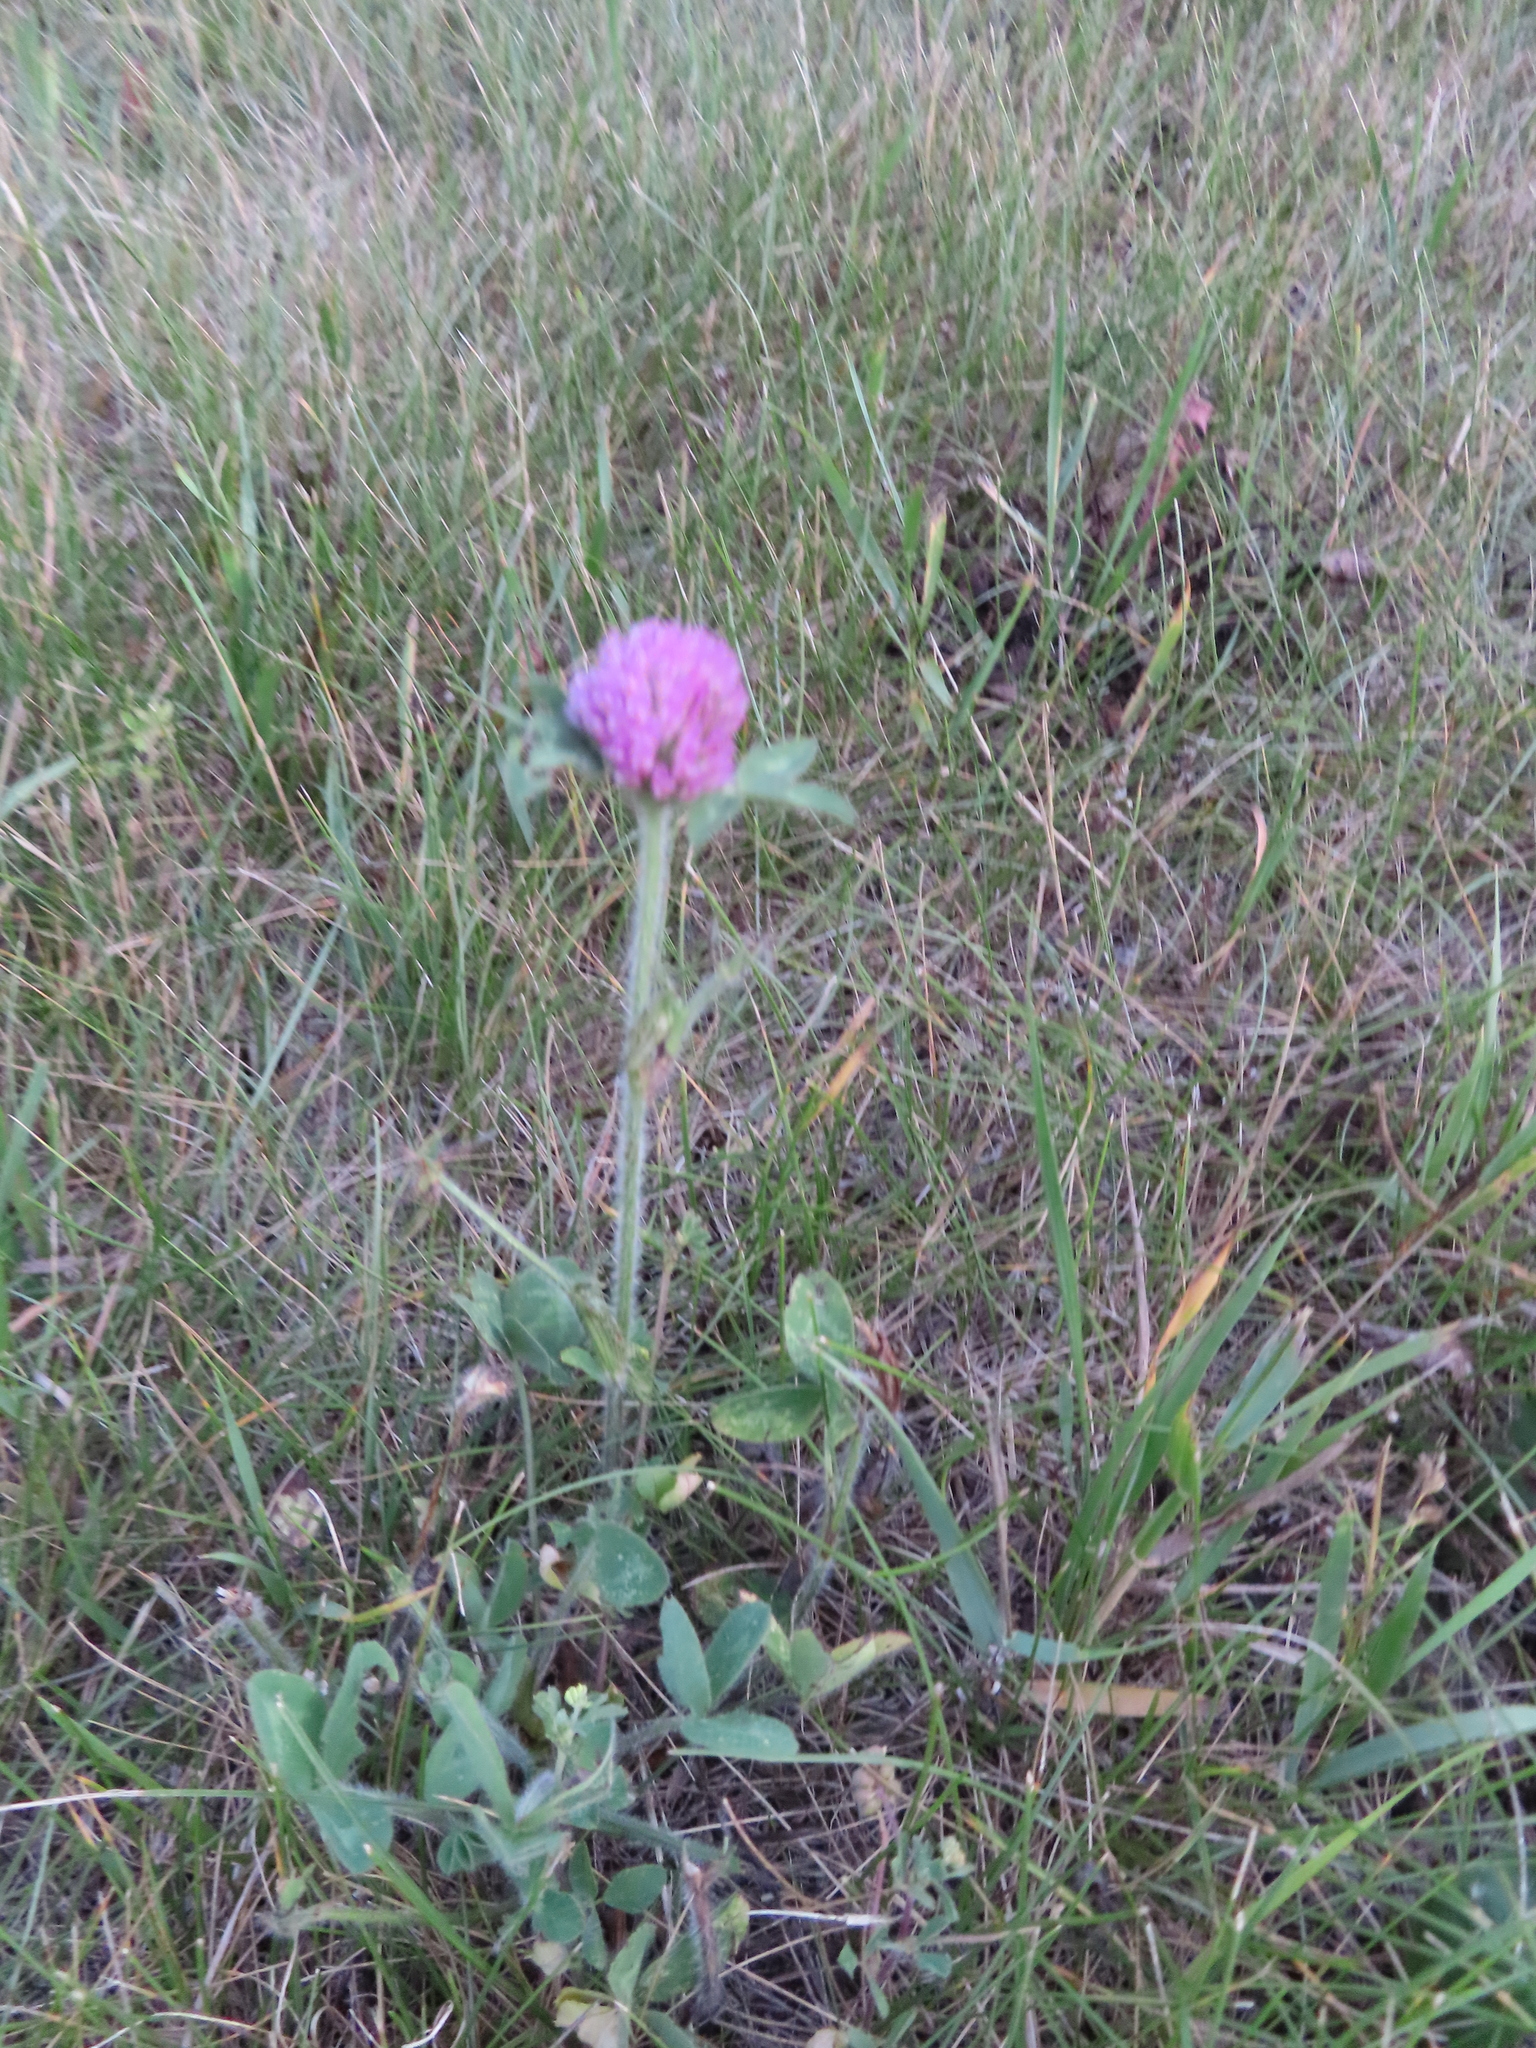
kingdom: Plantae
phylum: Tracheophyta
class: Magnoliopsida
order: Fabales
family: Fabaceae
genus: Trifolium
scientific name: Trifolium pratense
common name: Red clover
